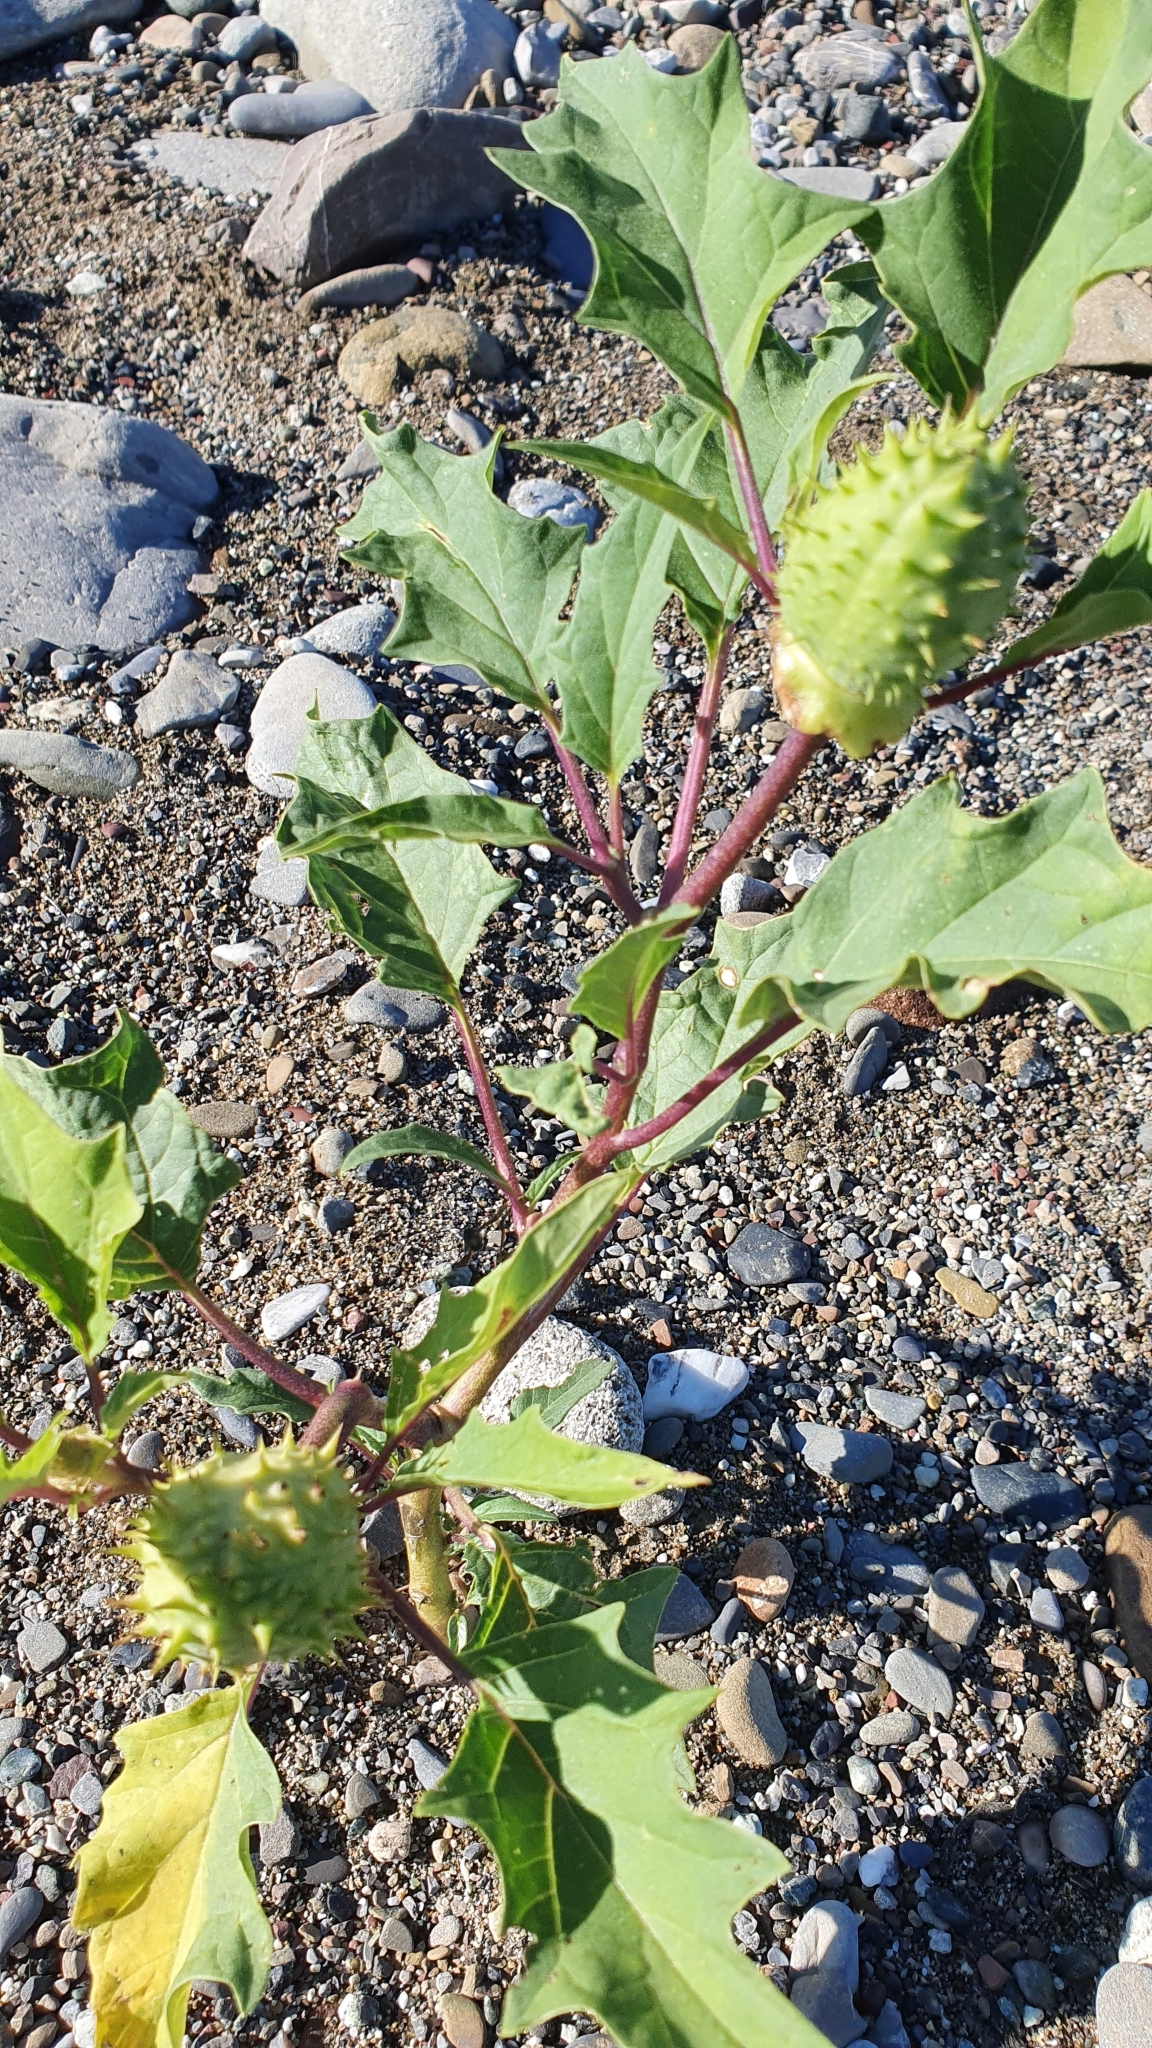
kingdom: Plantae
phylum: Tracheophyta
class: Magnoliopsida
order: Solanales
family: Solanaceae
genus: Datura
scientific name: Datura stramonium
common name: Thorn-apple
